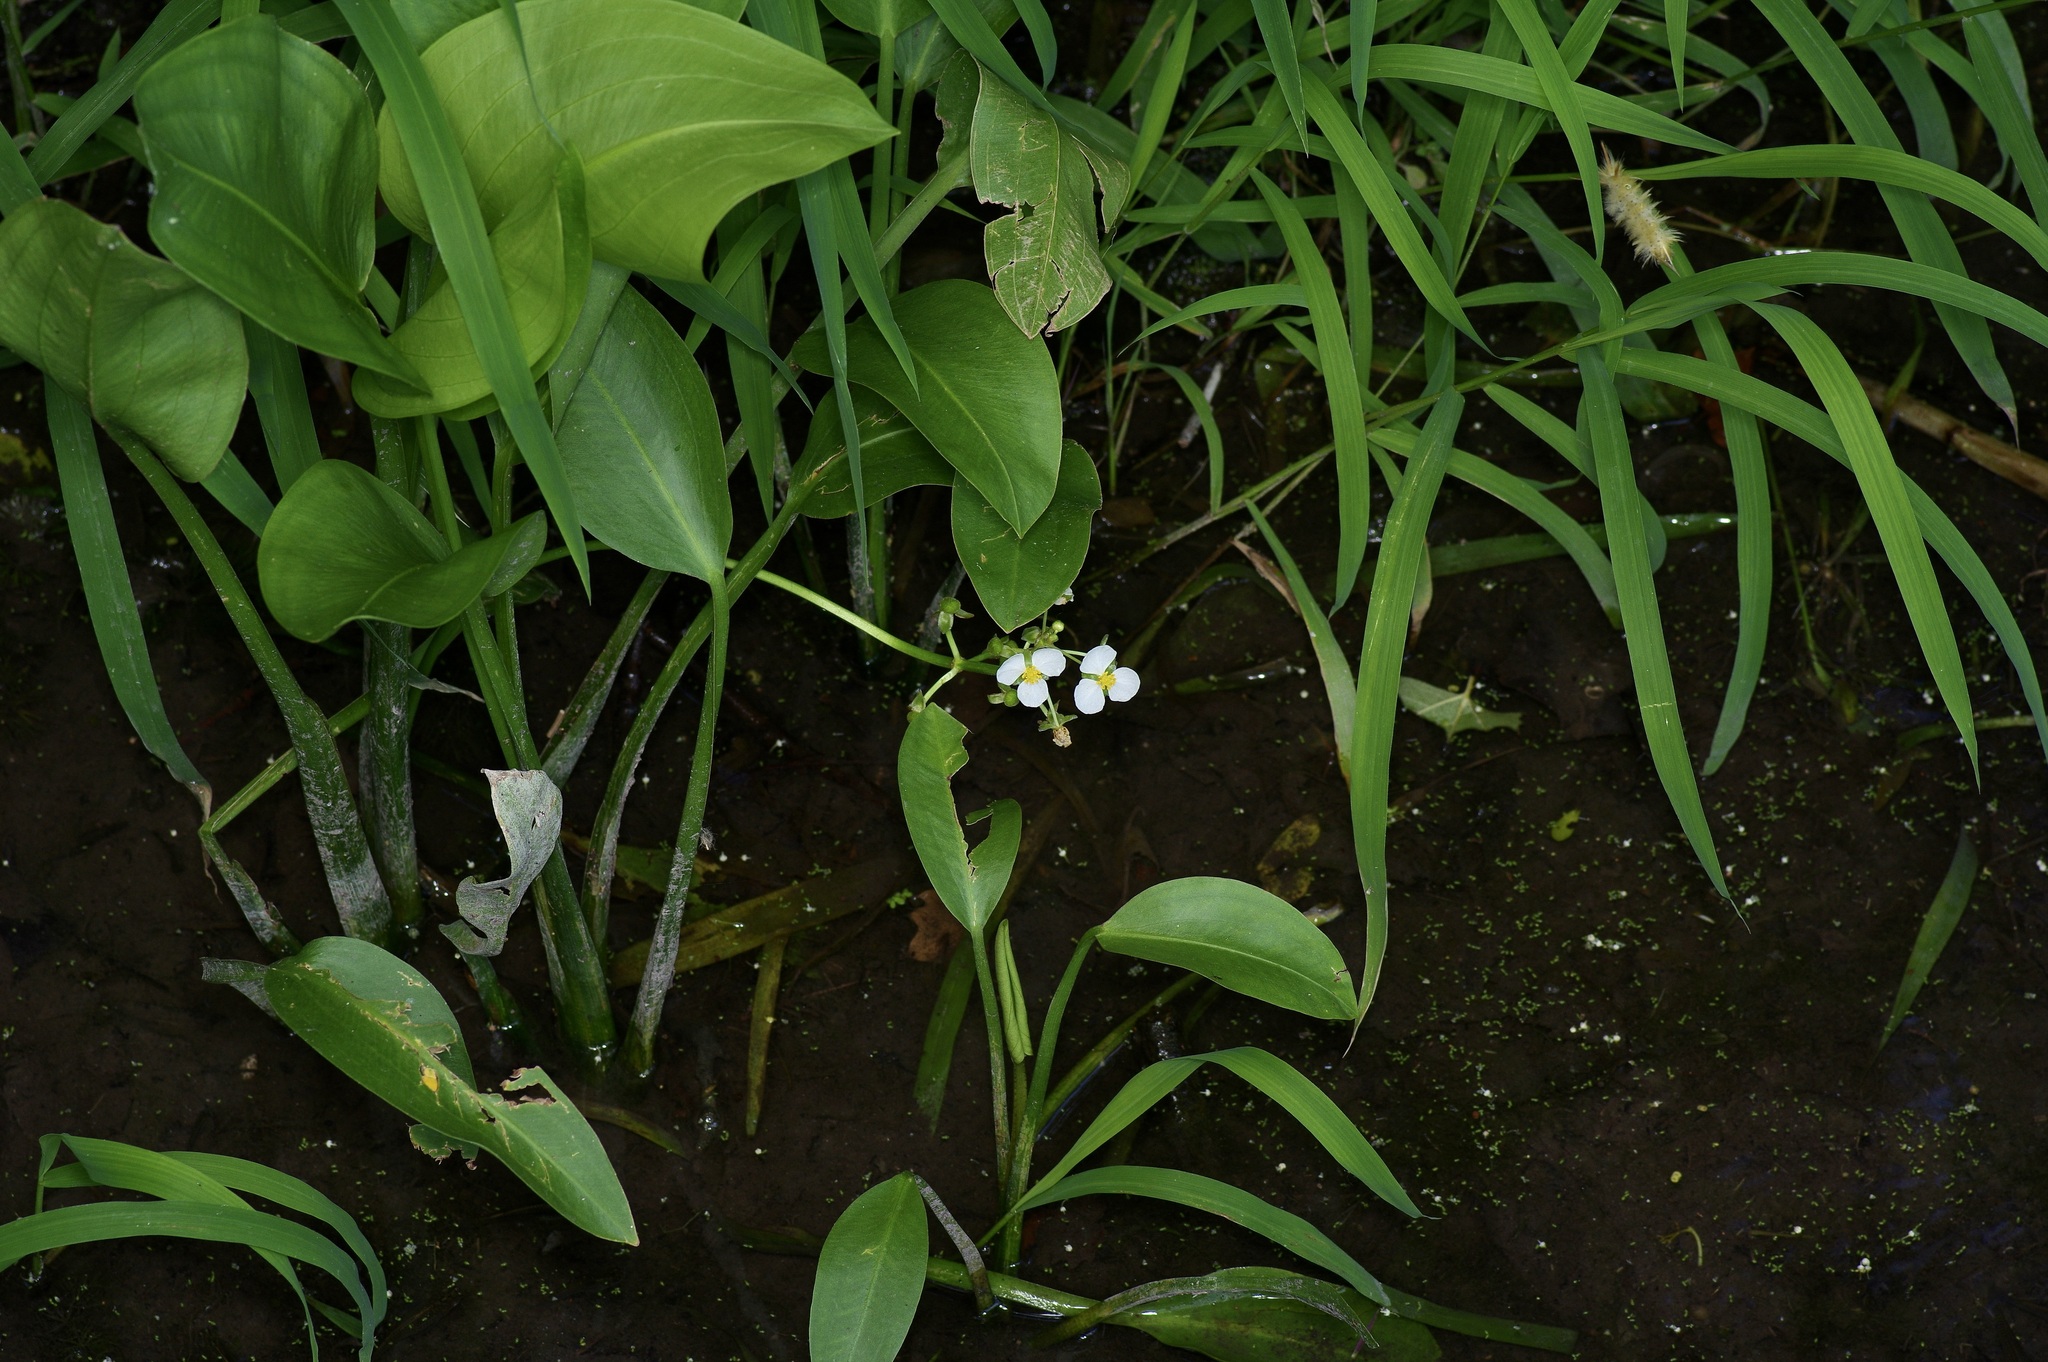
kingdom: Plantae
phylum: Tracheophyta
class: Liliopsida
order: Alismatales
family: Alismataceae
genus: Sagittaria
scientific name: Sagittaria platyphylla
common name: Broad-leaf arrowhead
